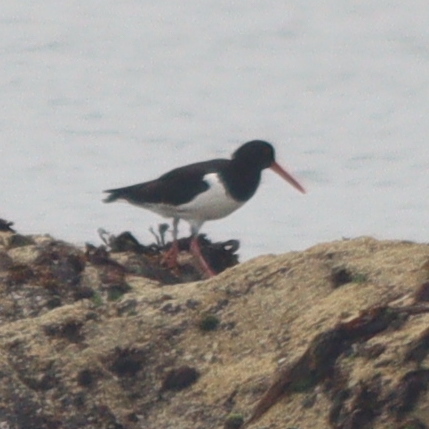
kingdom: Animalia
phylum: Chordata
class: Aves
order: Charadriiformes
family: Haematopodidae
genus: Haematopus
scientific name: Haematopus ostralegus
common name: Eurasian oystercatcher
